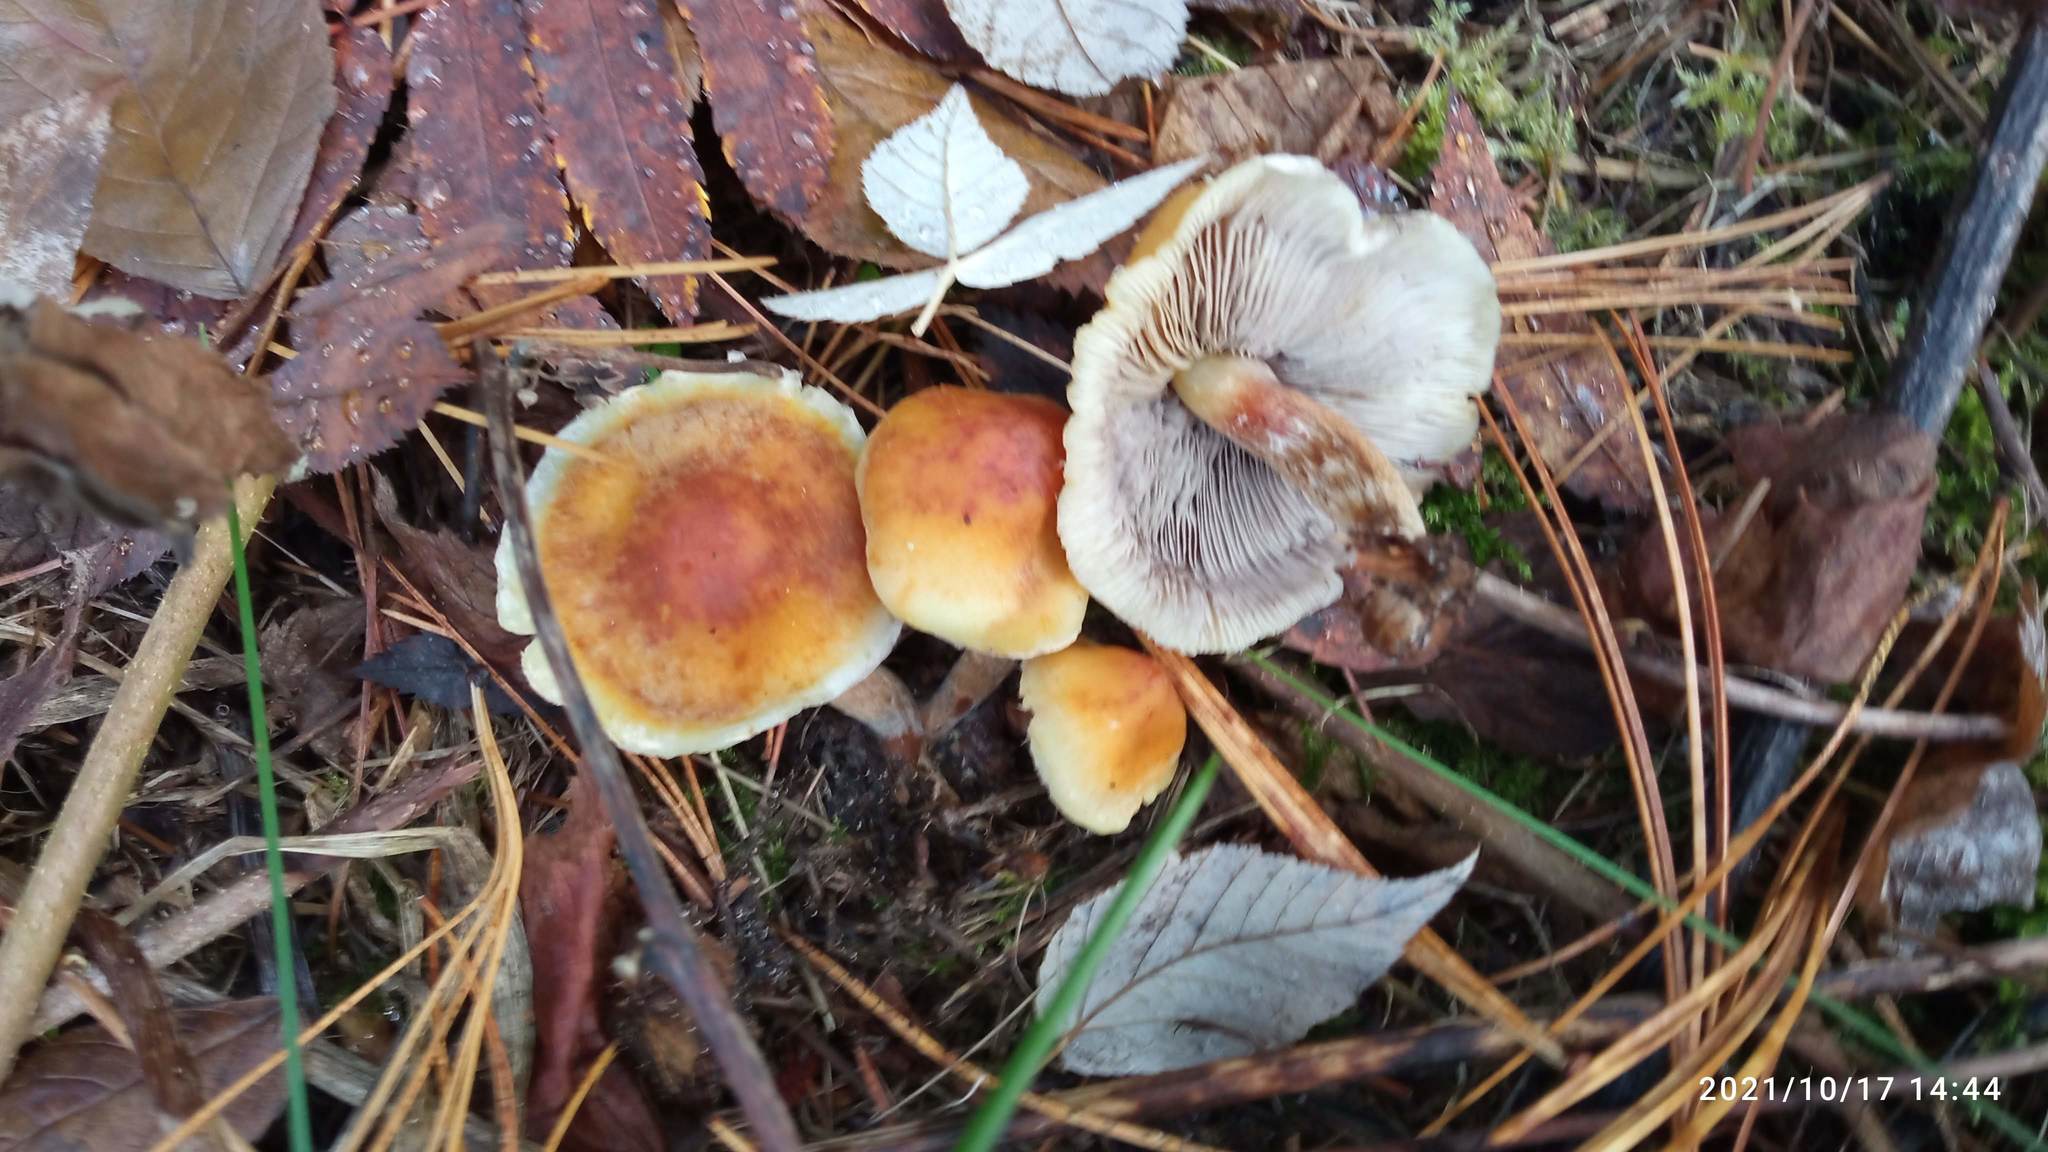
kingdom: Fungi
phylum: Basidiomycota
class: Agaricomycetes
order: Agaricales
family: Strophariaceae
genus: Hypholoma
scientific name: Hypholoma lateritium
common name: Brick caps
